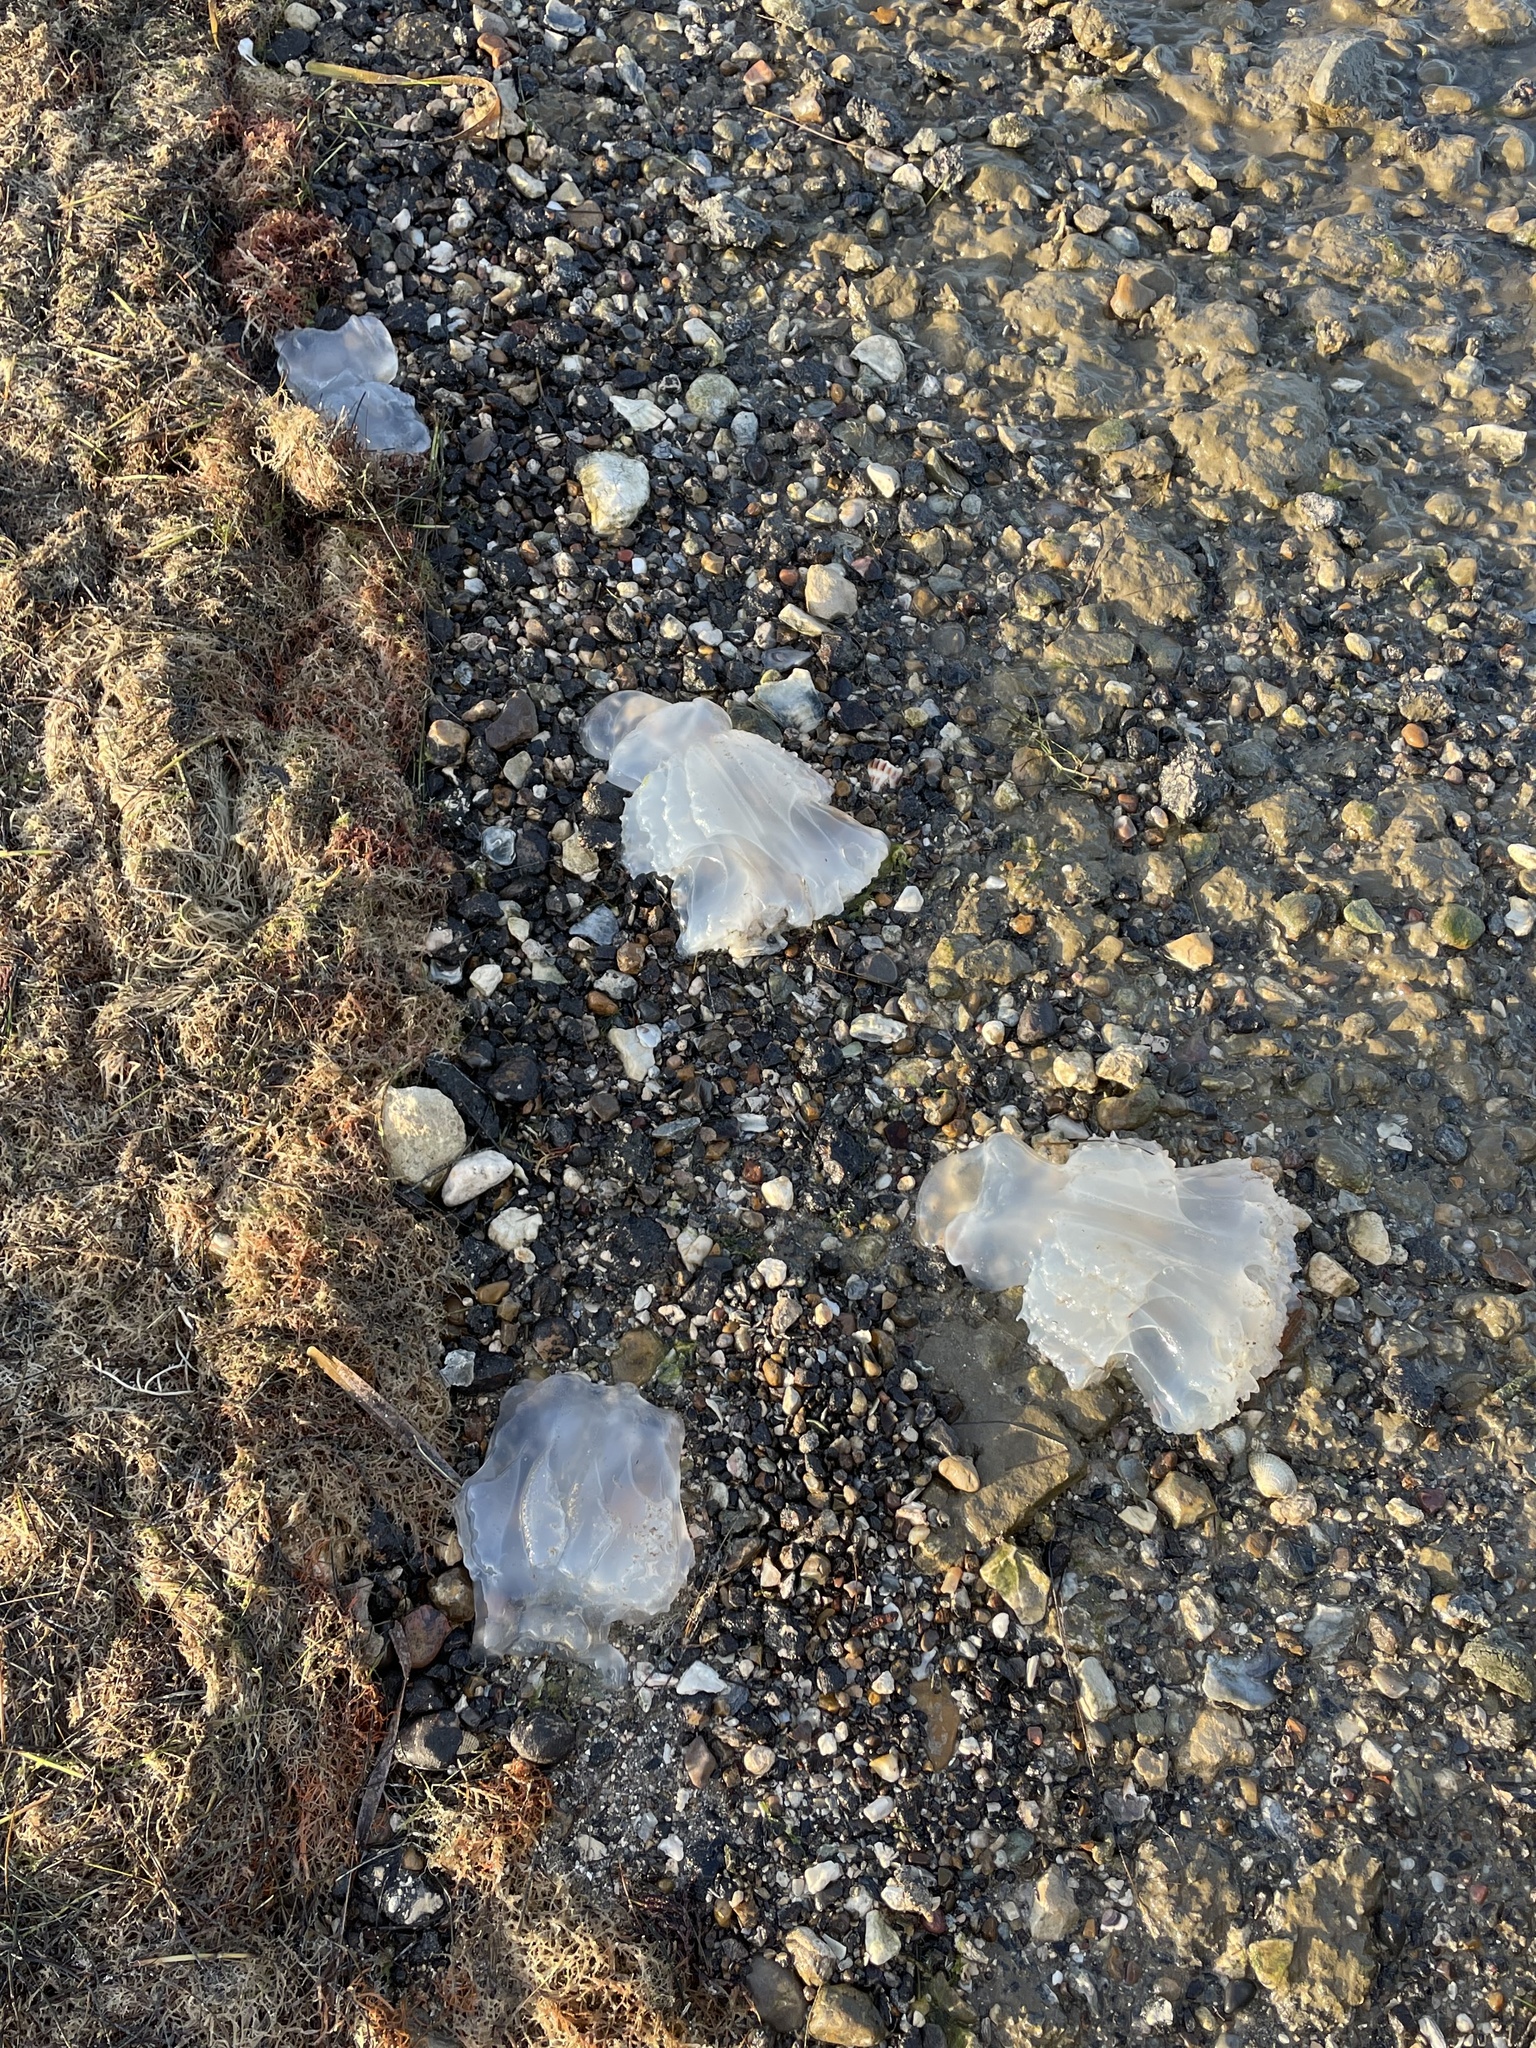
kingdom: Animalia
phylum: Cnidaria
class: Scyphozoa
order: Rhizostomeae
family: Stomolophidae
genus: Stomolophus
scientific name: Stomolophus meleagris
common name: Cabbagehead
